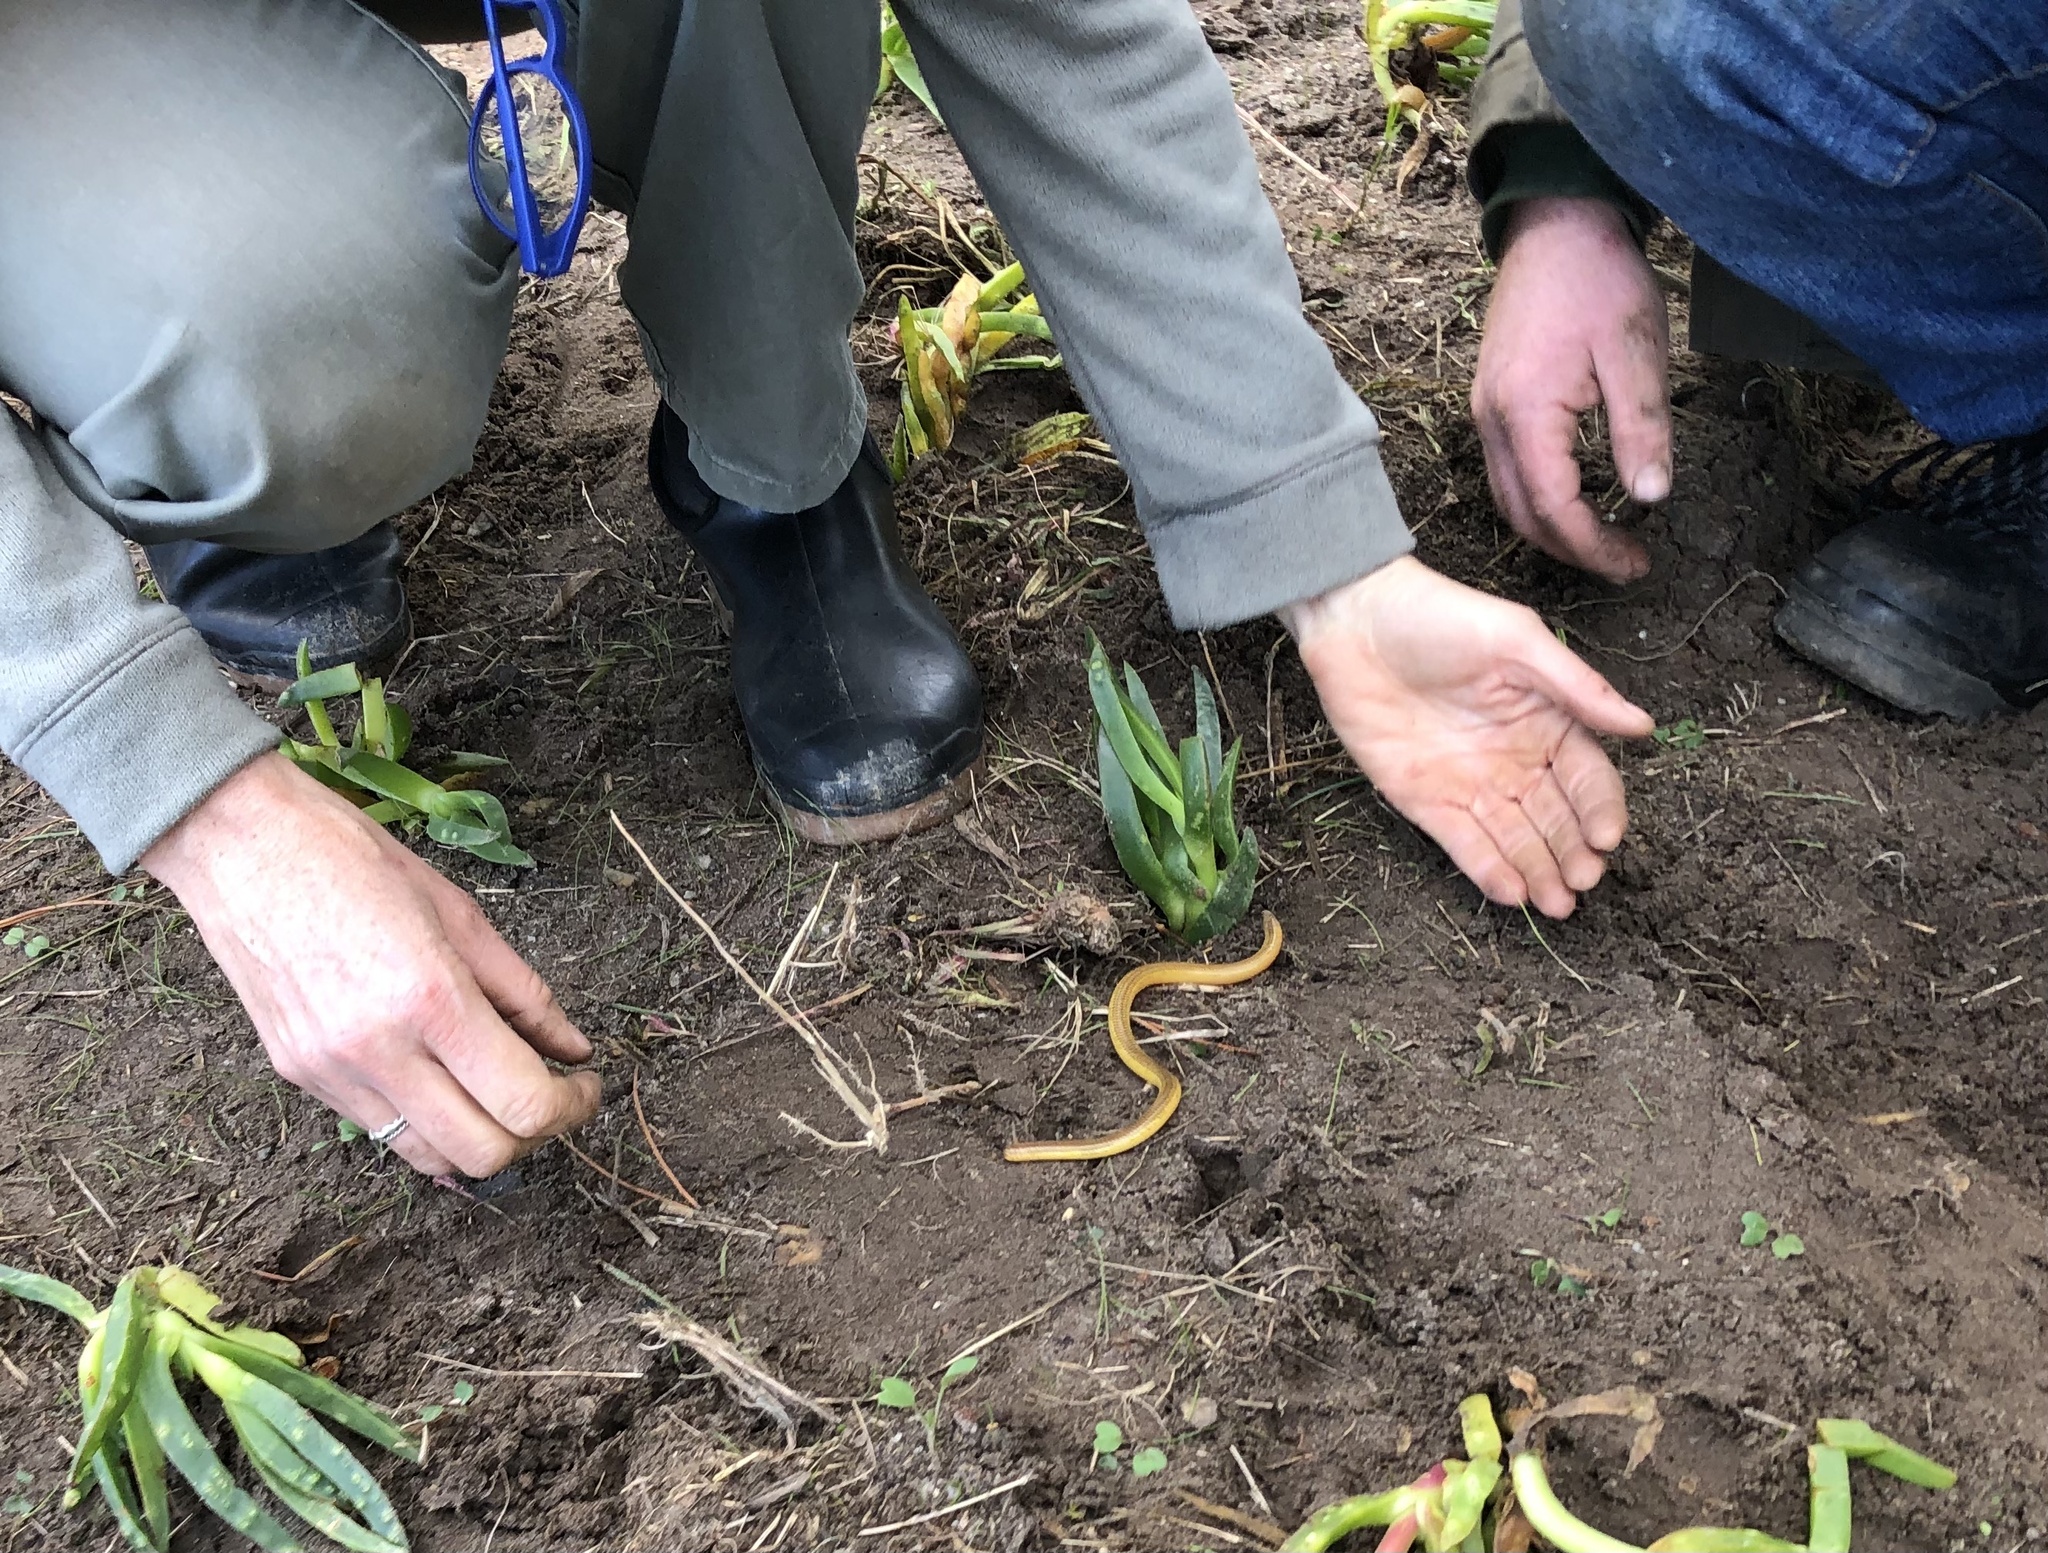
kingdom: Animalia
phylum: Chordata
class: Squamata
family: Scincidae
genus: Acontias
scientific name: Acontias meleagris
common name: Cape legless skink
